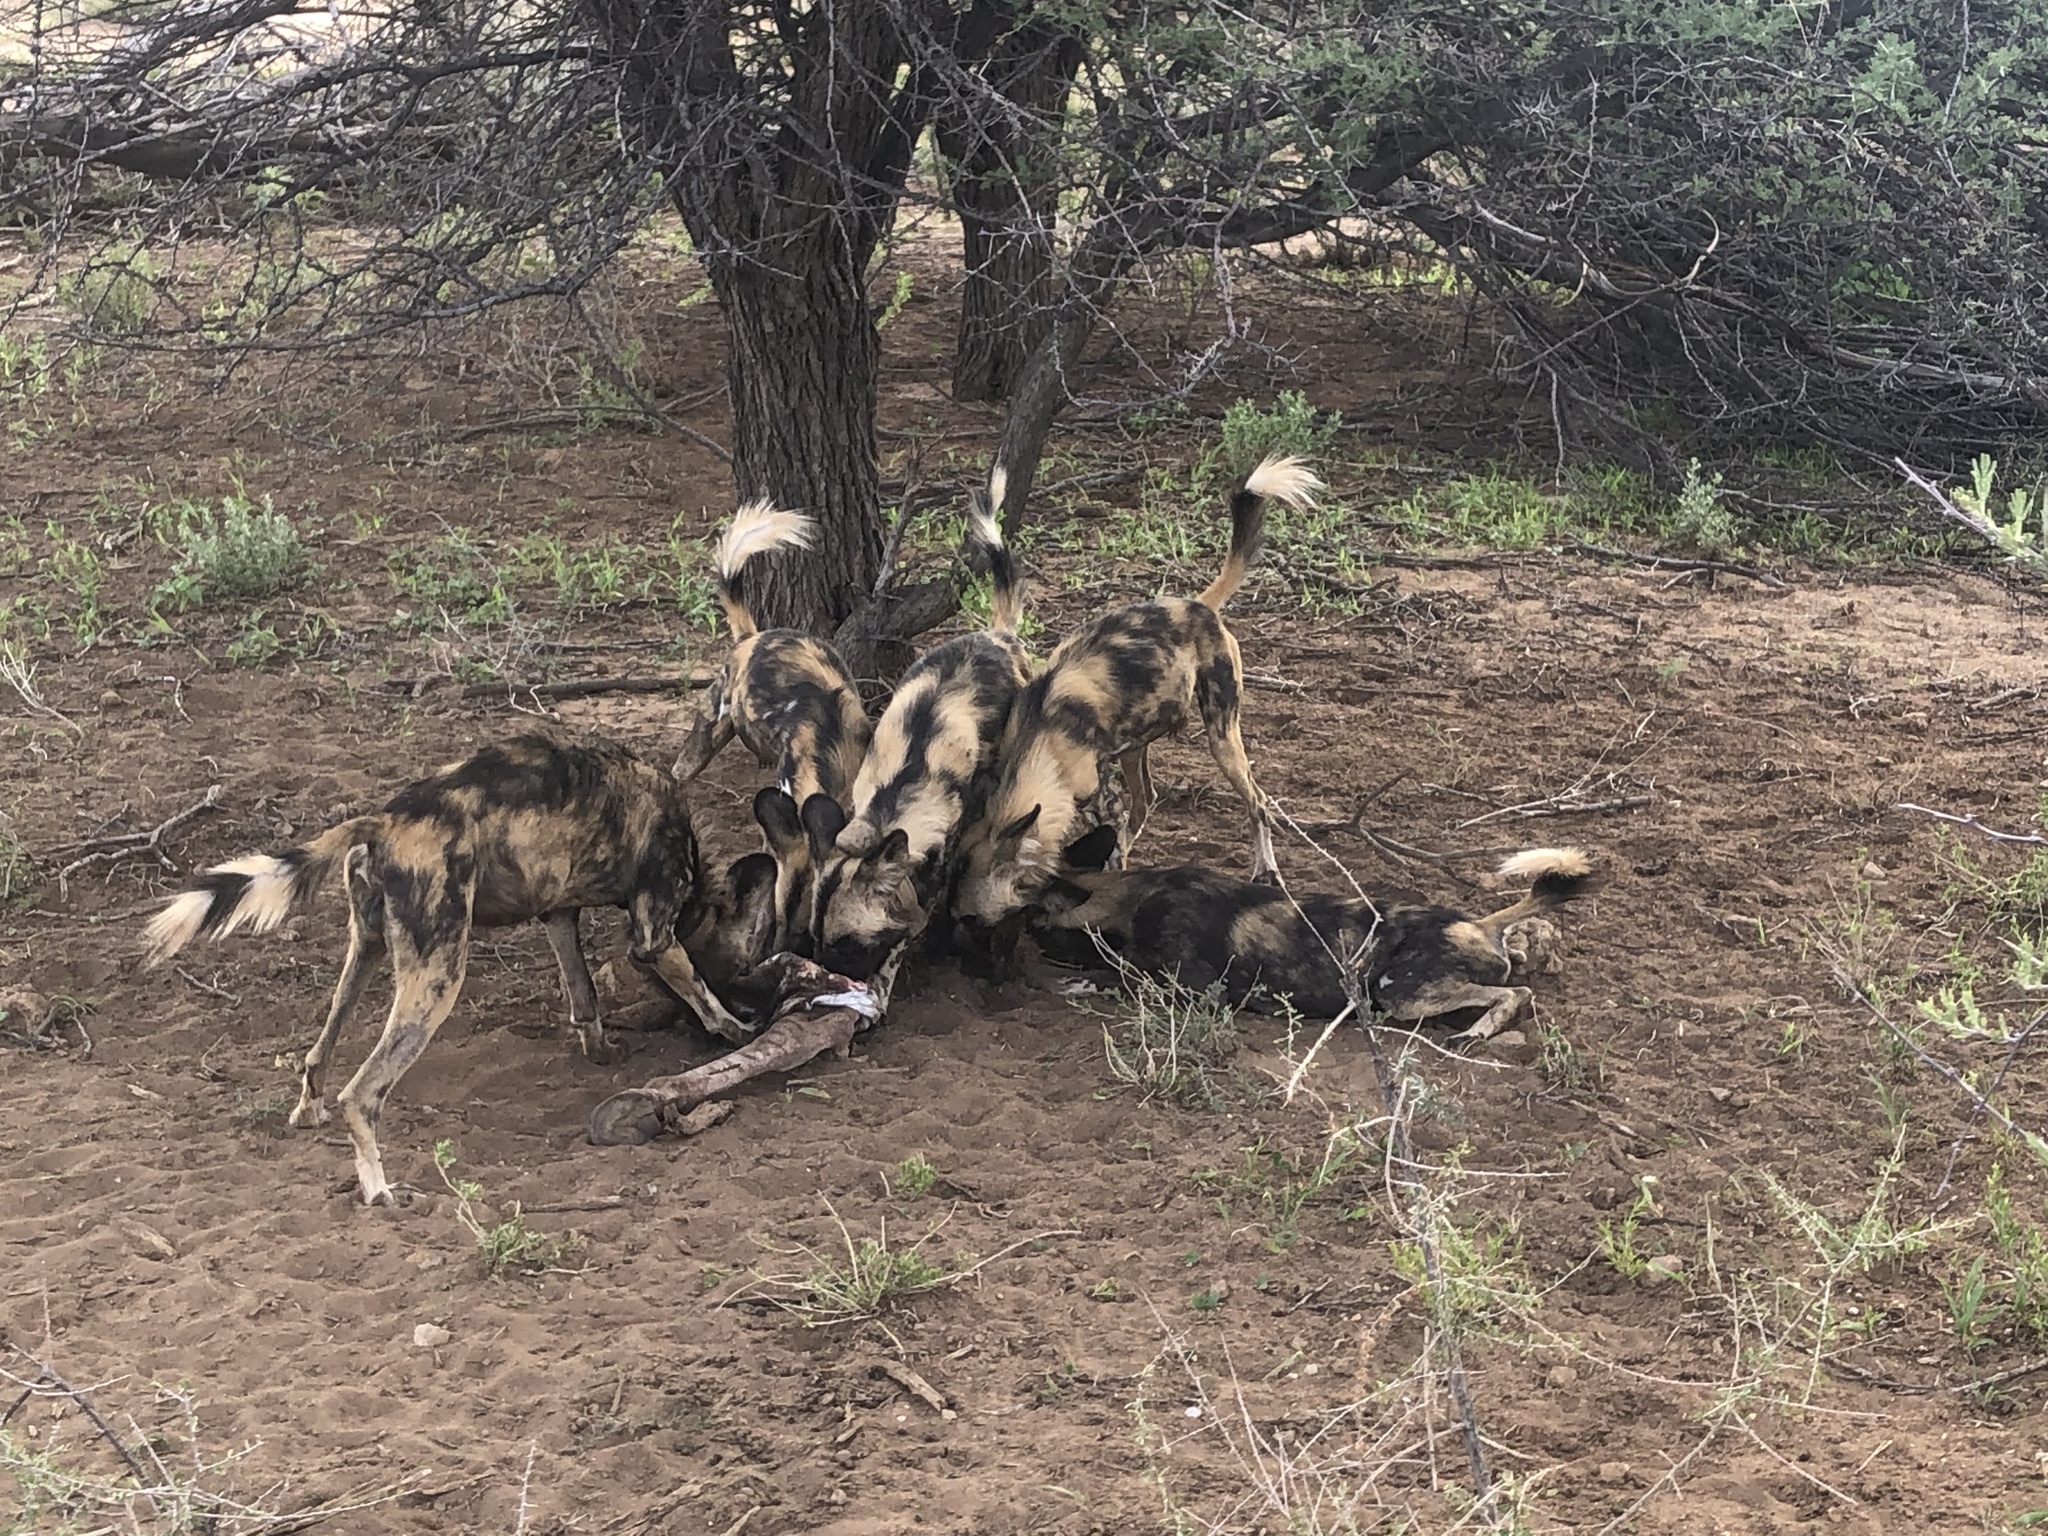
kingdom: Animalia
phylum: Chordata
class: Mammalia
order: Carnivora
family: Canidae
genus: Lycaon
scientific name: Lycaon pictus
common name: African wild dog
